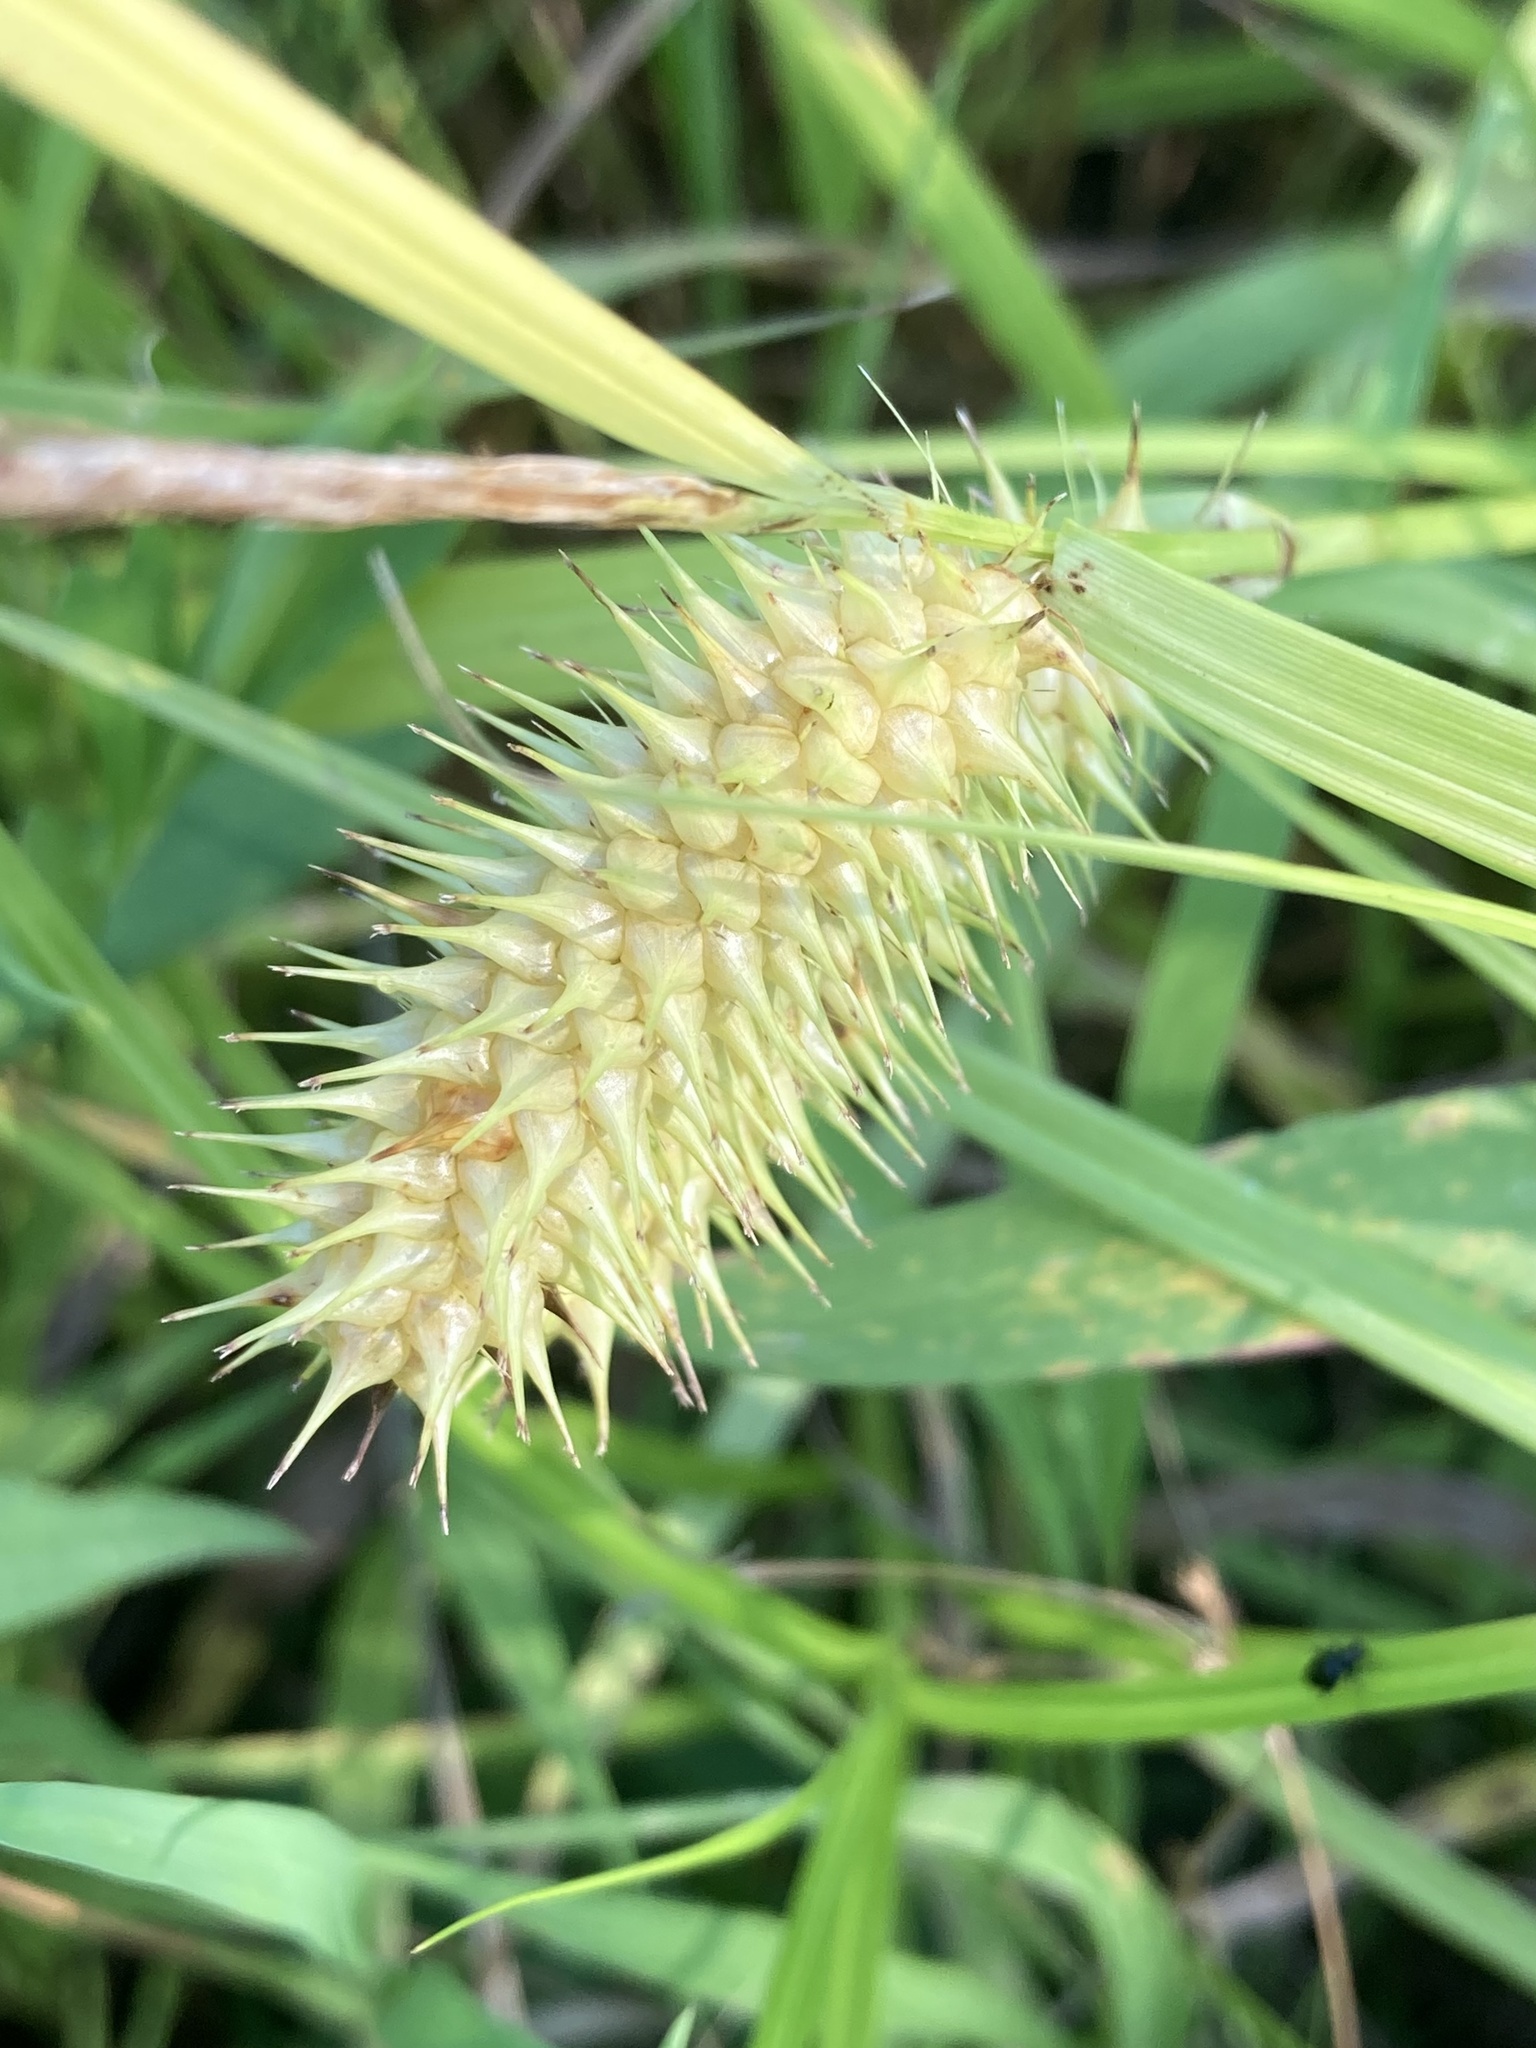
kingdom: Plantae
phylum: Tracheophyta
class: Liliopsida
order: Poales
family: Cyperaceae
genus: Carex
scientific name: Carex lurida
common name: Sallow sedge
